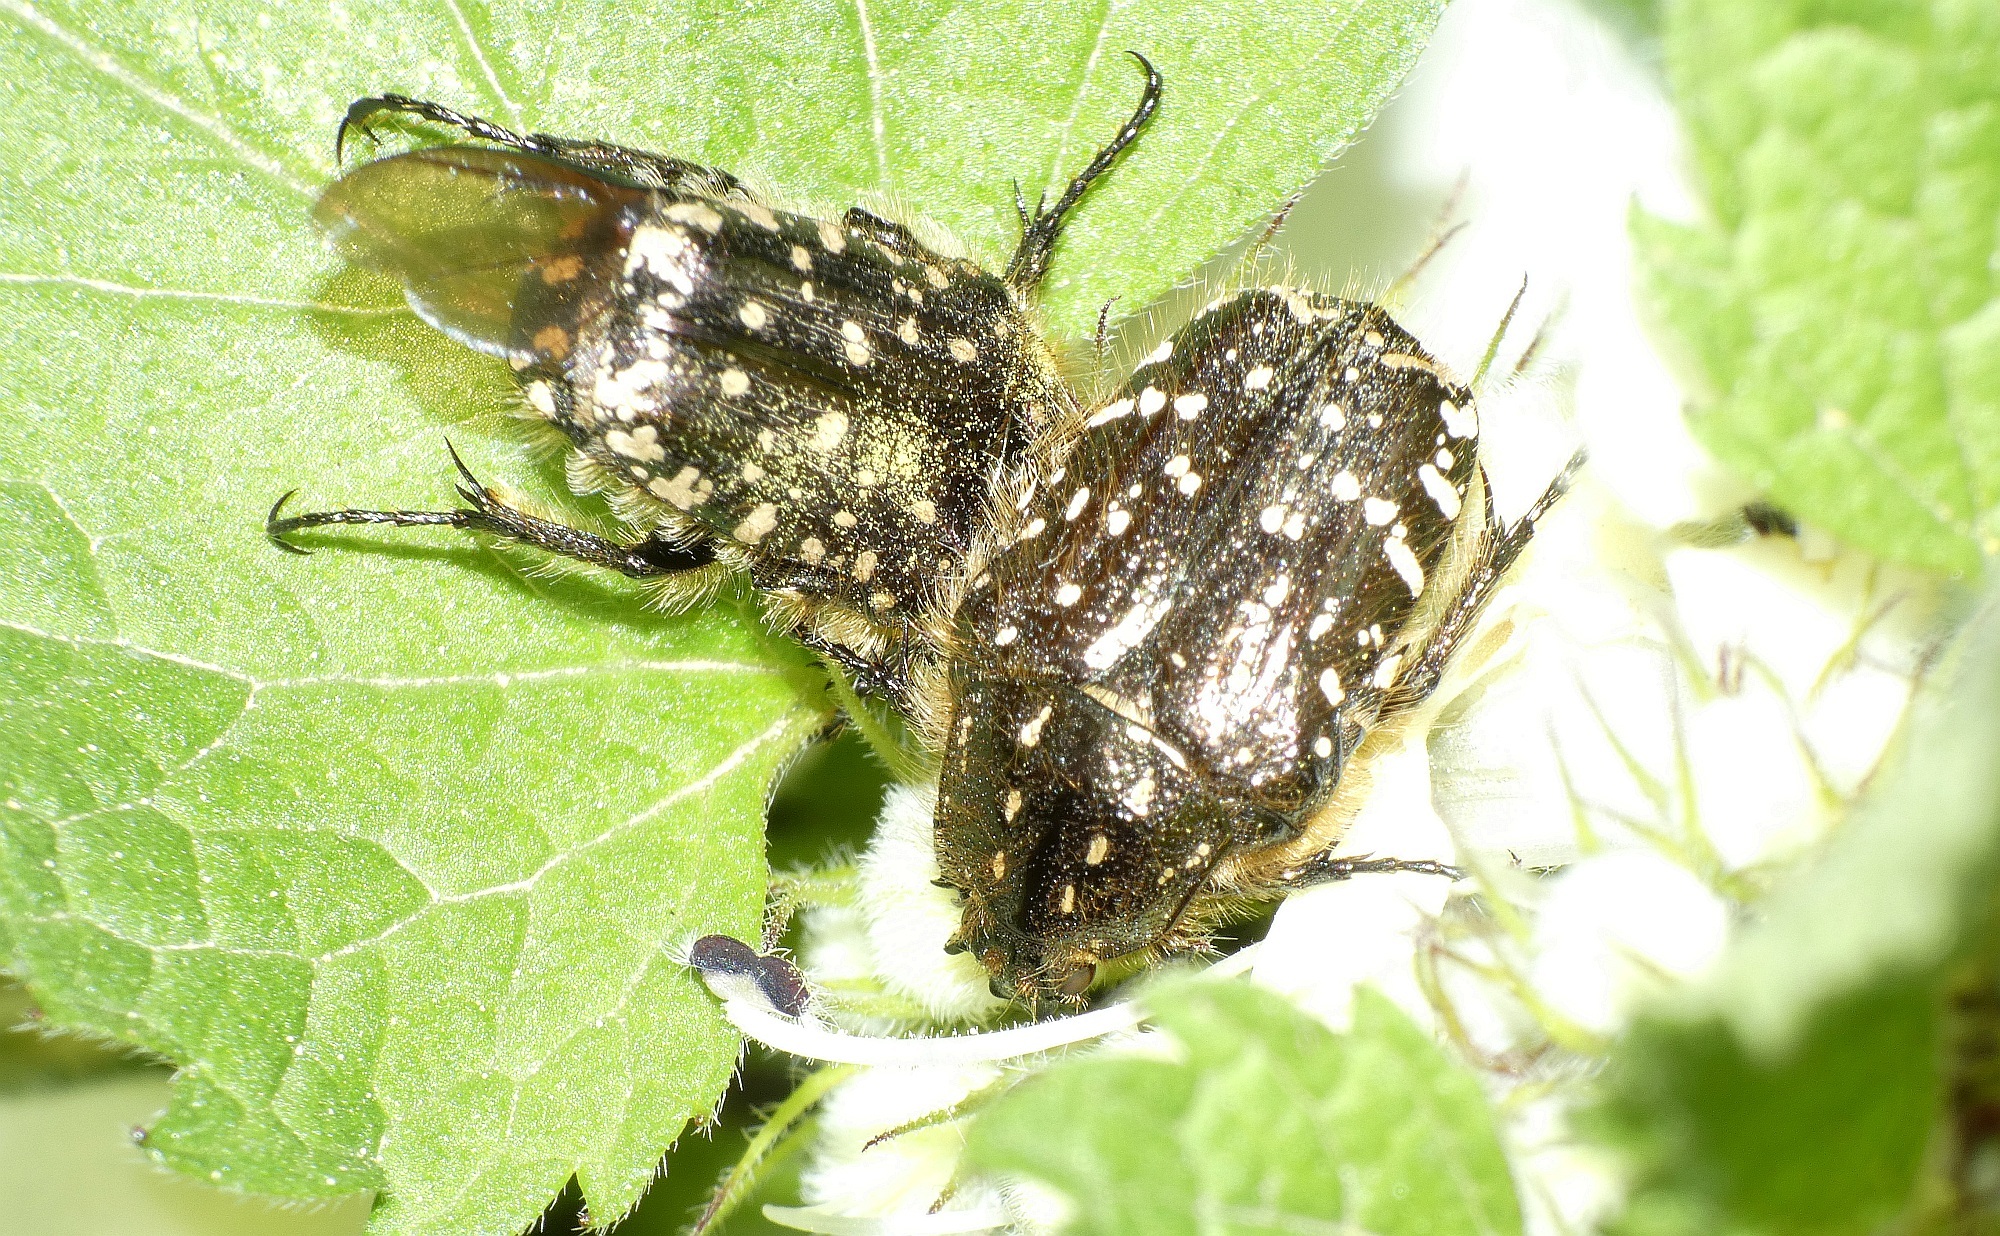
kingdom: Animalia
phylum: Arthropoda
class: Insecta
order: Coleoptera
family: Scarabaeidae
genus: Oxythyrea
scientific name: Oxythyrea funesta
